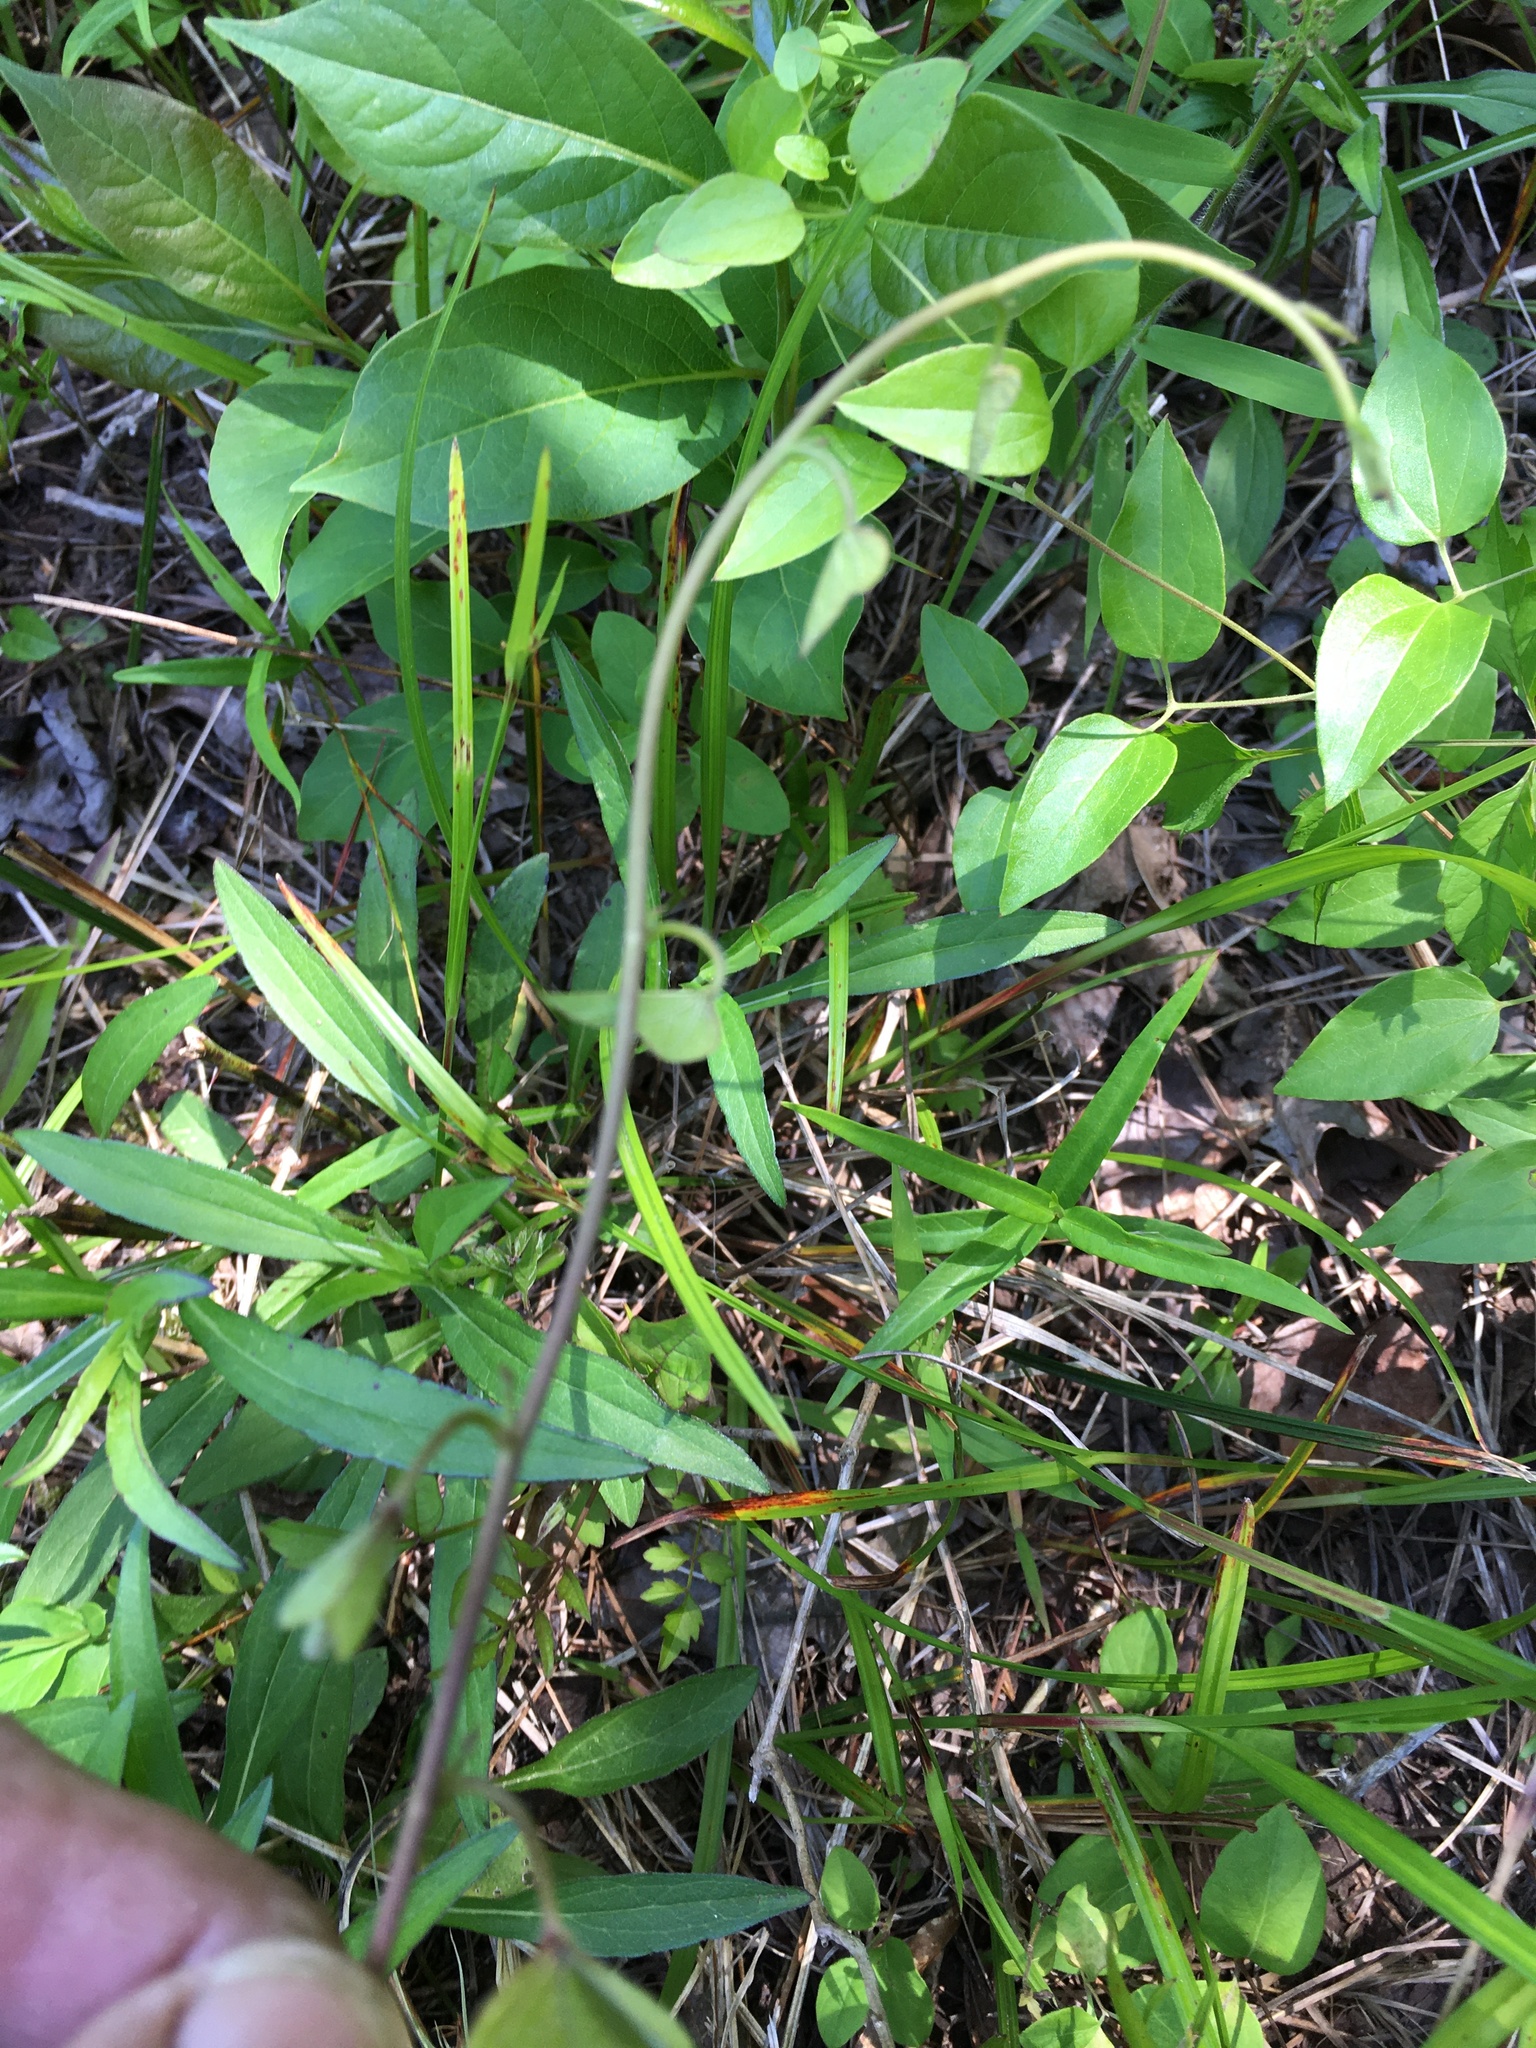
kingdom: Plantae
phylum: Tracheophyta
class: Magnoliopsida
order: Solanales
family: Convolvulaceae
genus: Ipomoea
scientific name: Ipomoea pandurata
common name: Man-of-the-earth
